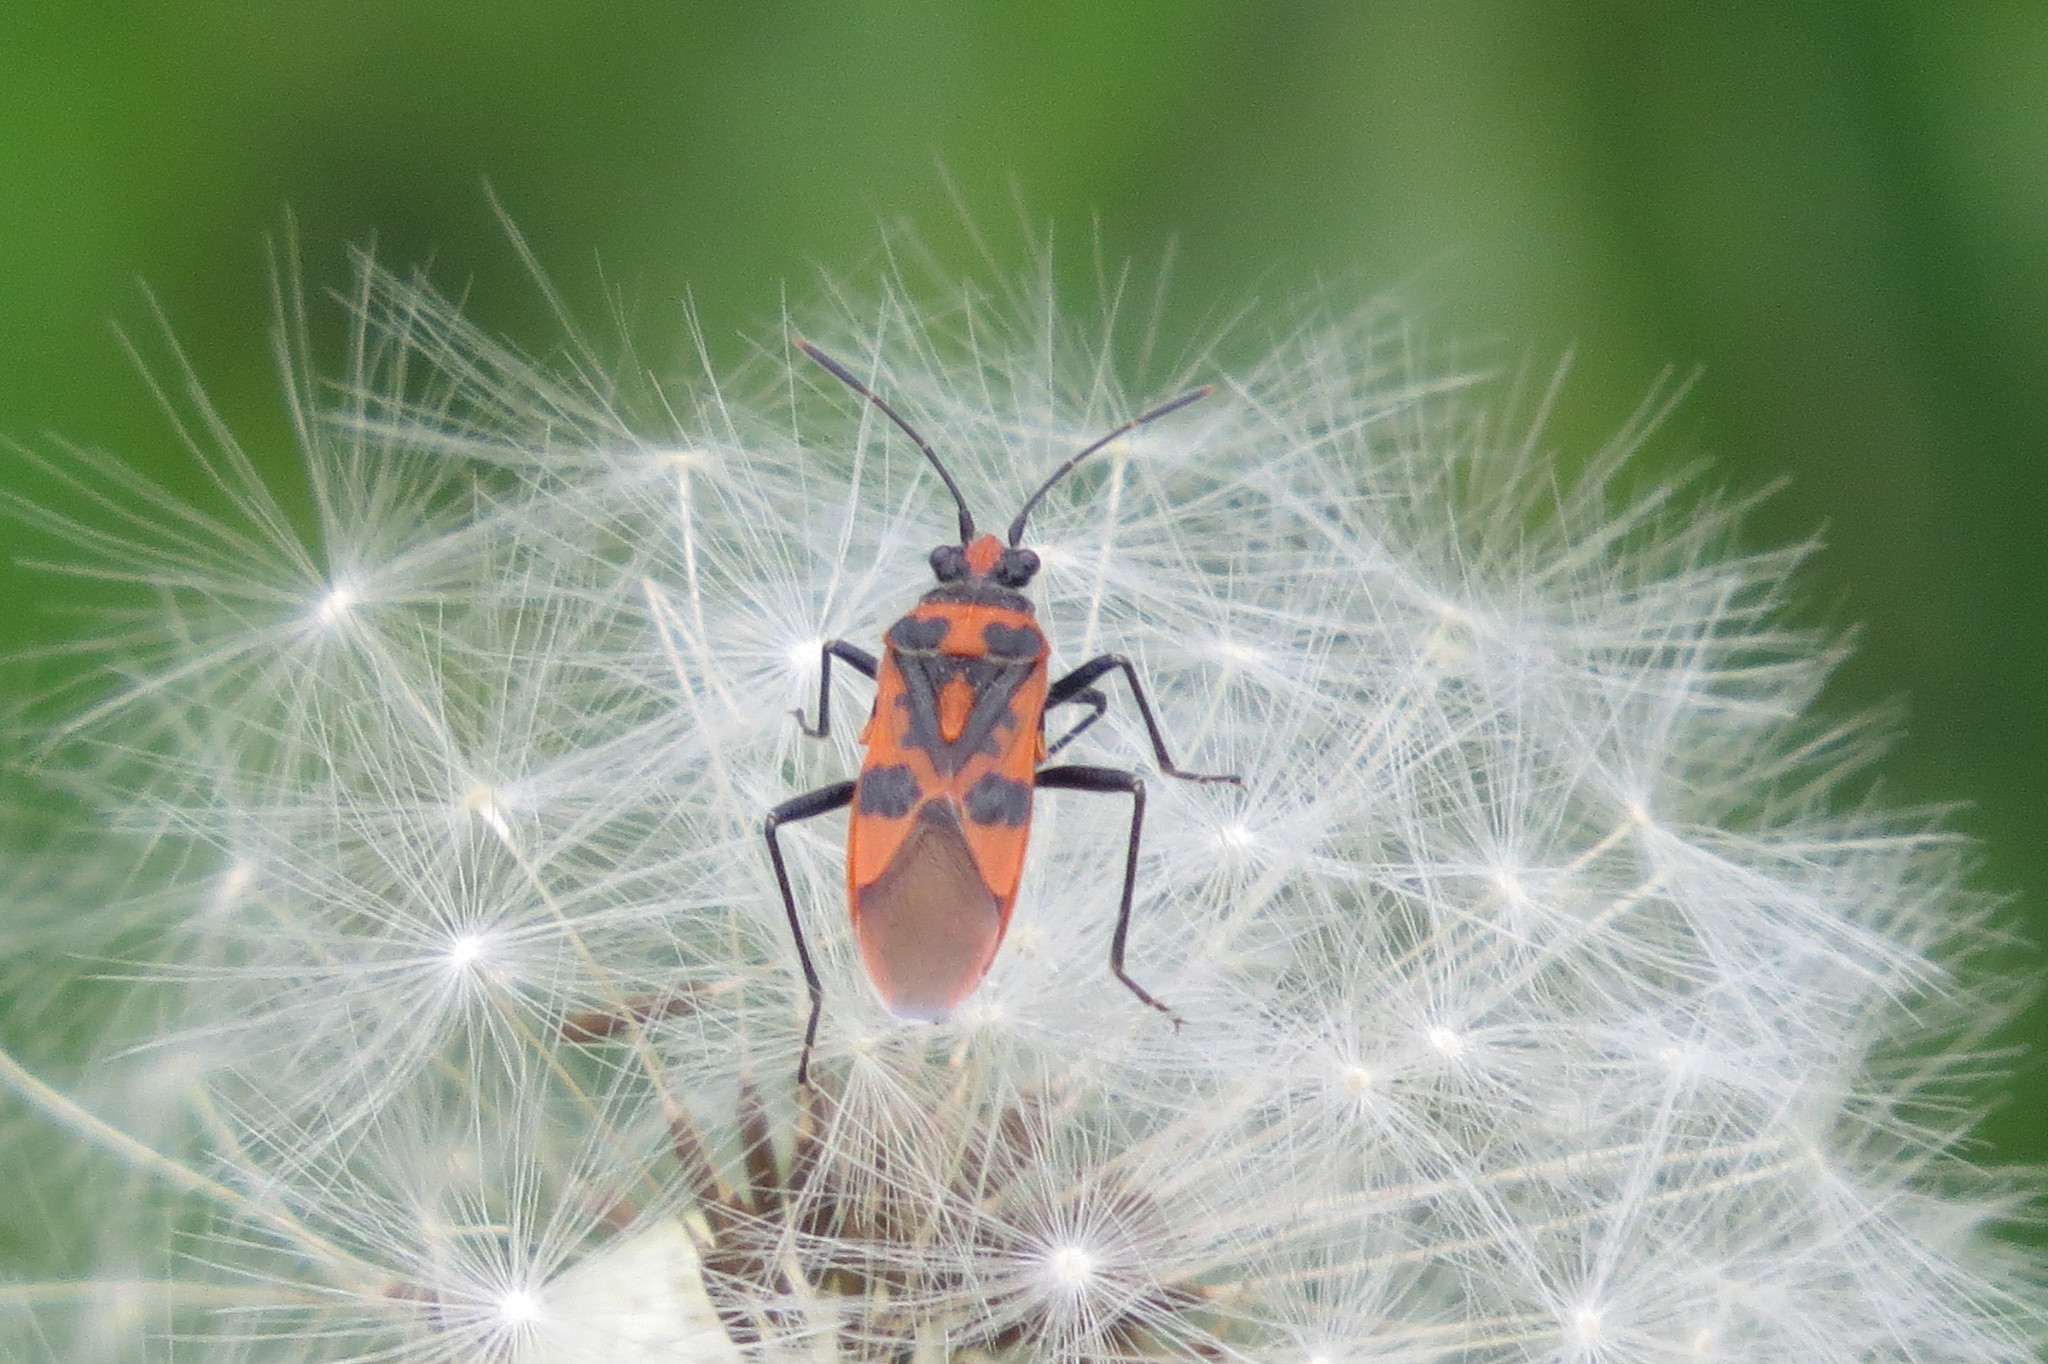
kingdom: Animalia
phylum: Arthropoda
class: Insecta
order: Hemiptera
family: Rhopalidae
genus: Corizus
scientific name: Corizus hyoscyami
